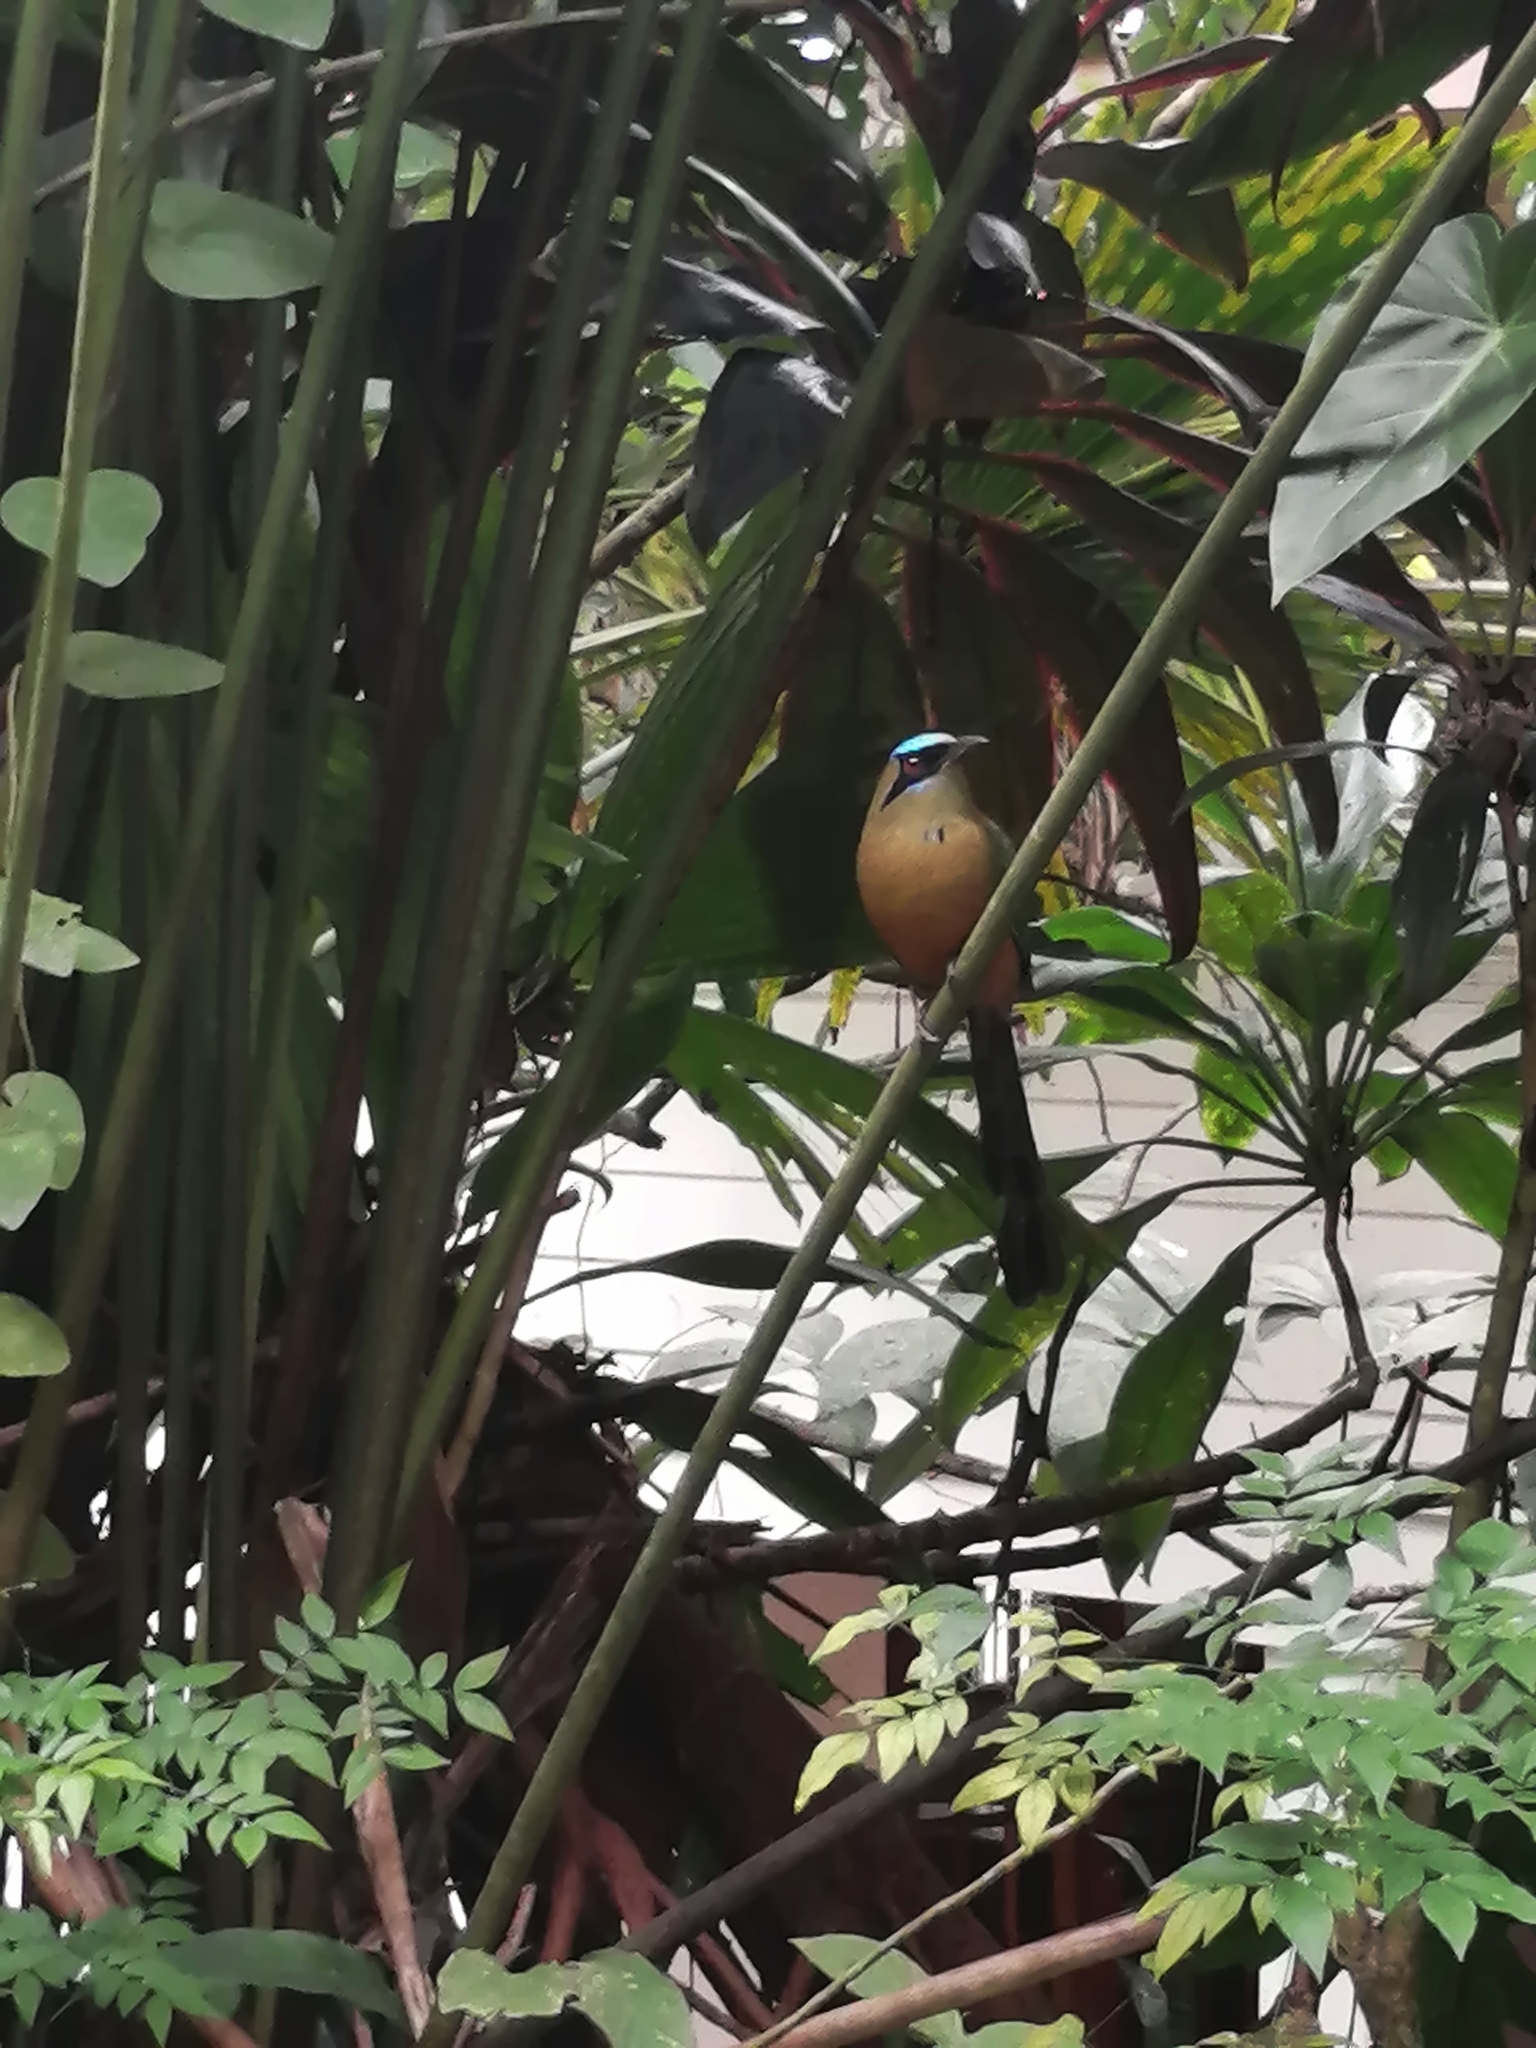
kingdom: Animalia
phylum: Chordata
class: Aves
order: Coraciiformes
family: Momotidae
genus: Momotus
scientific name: Momotus subrufescens
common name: Whooping motmot
